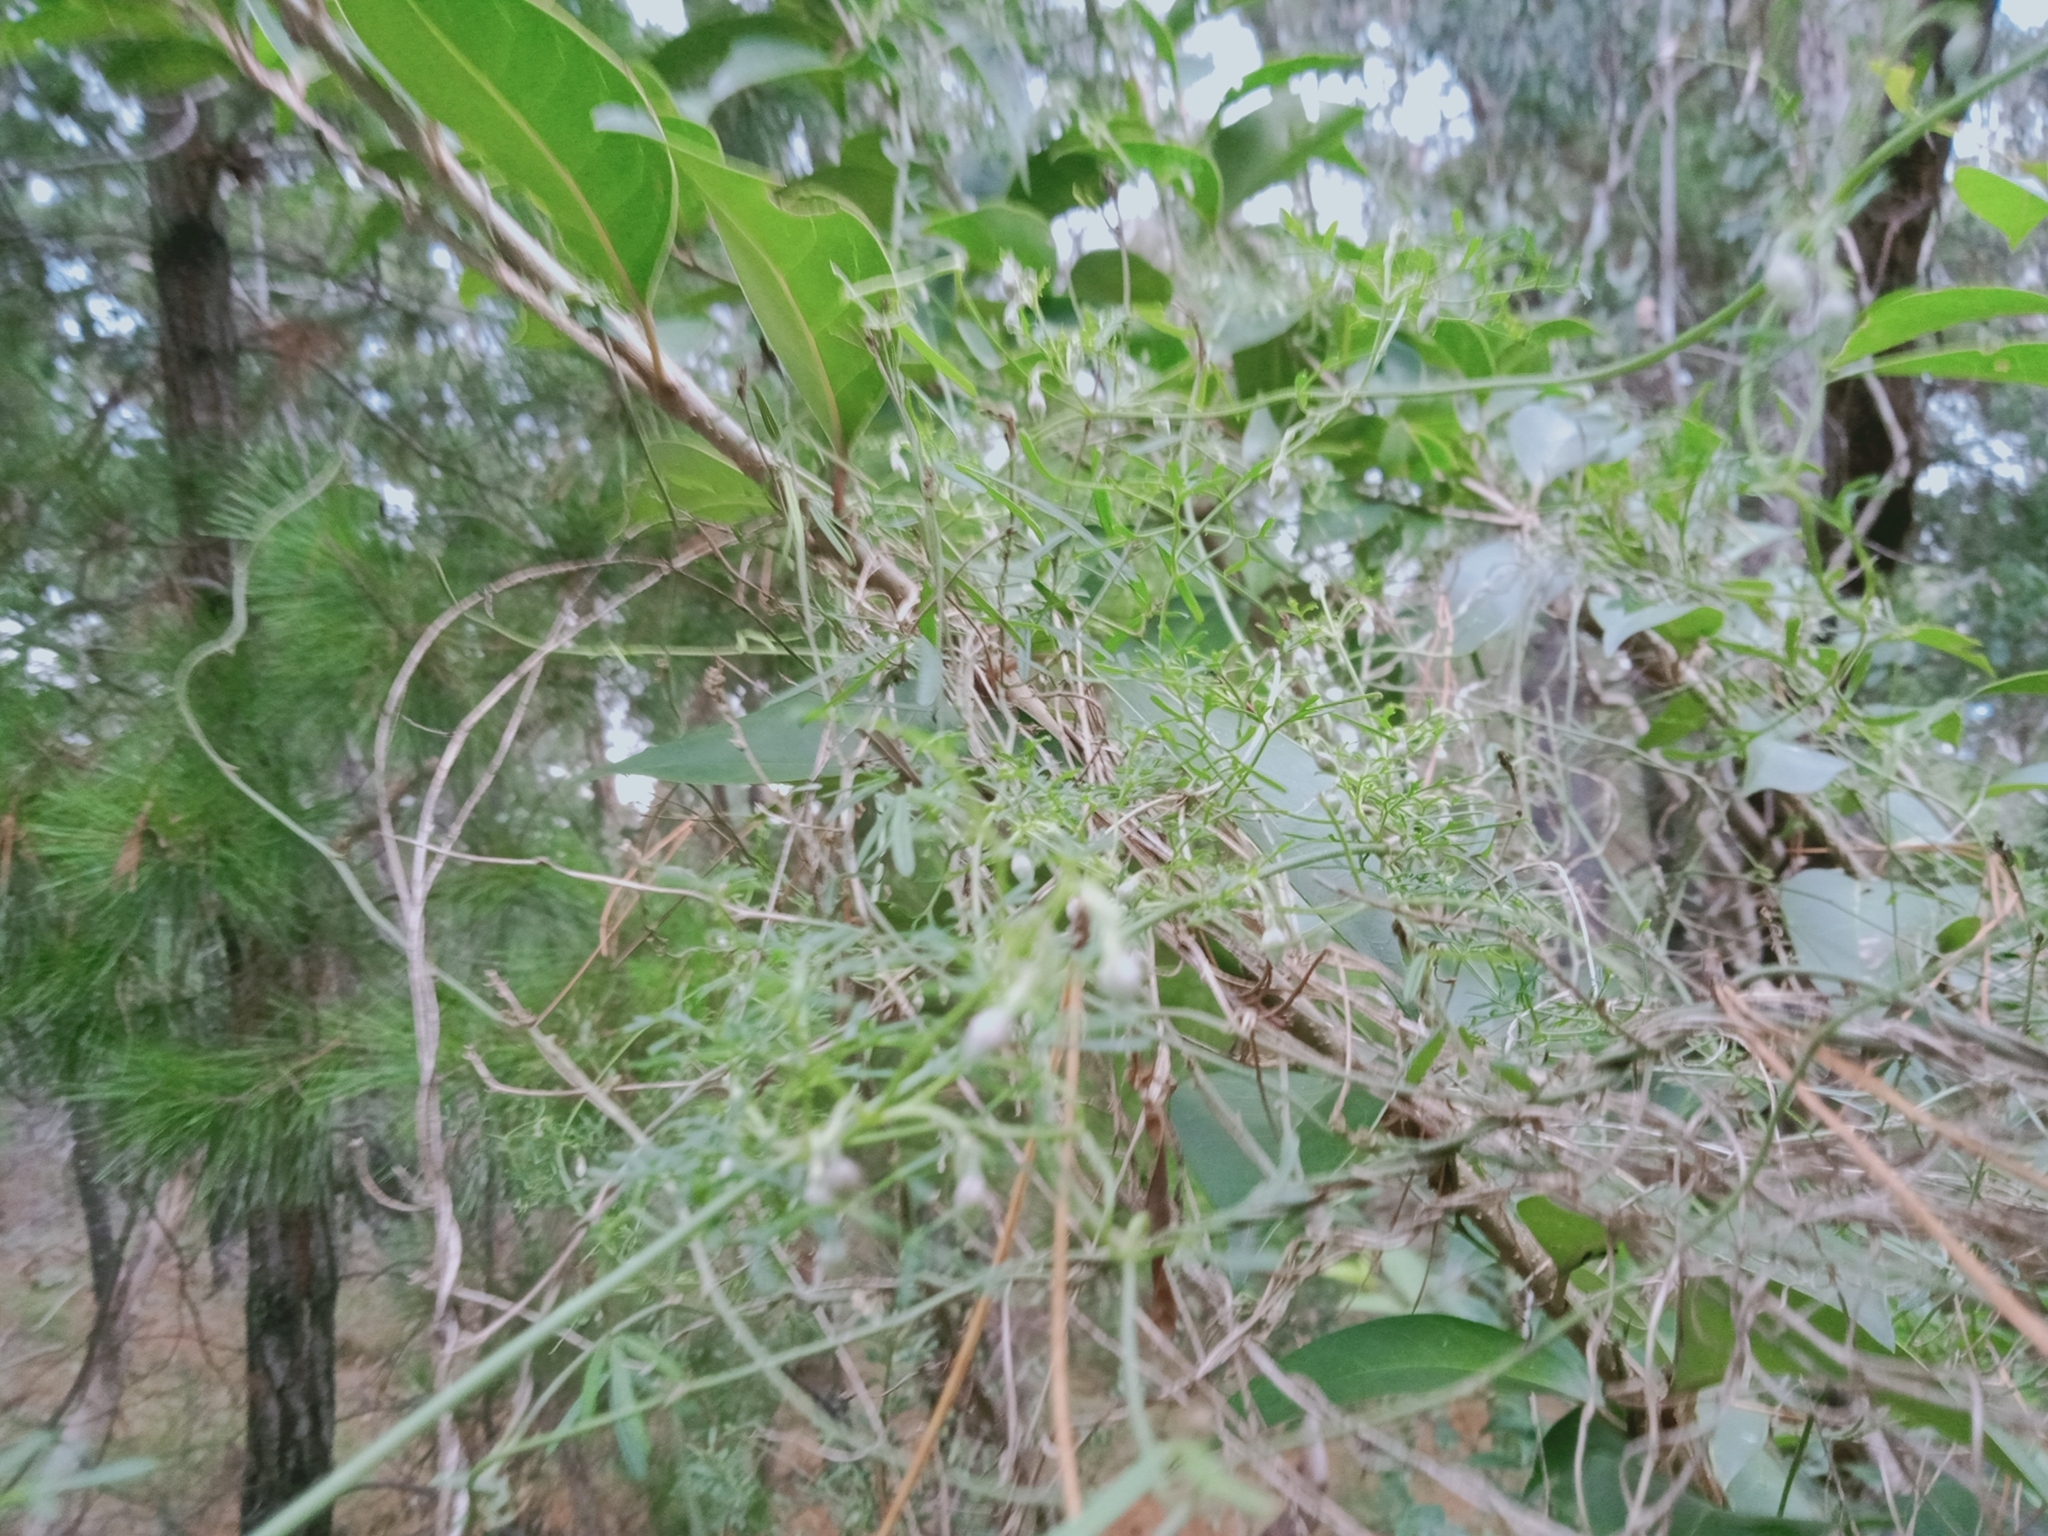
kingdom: Plantae
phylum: Tracheophyta
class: Magnoliopsida
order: Lamiales
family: Oleaceae
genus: Ligustrum
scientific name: Ligustrum lucidum
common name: Glossy privet
